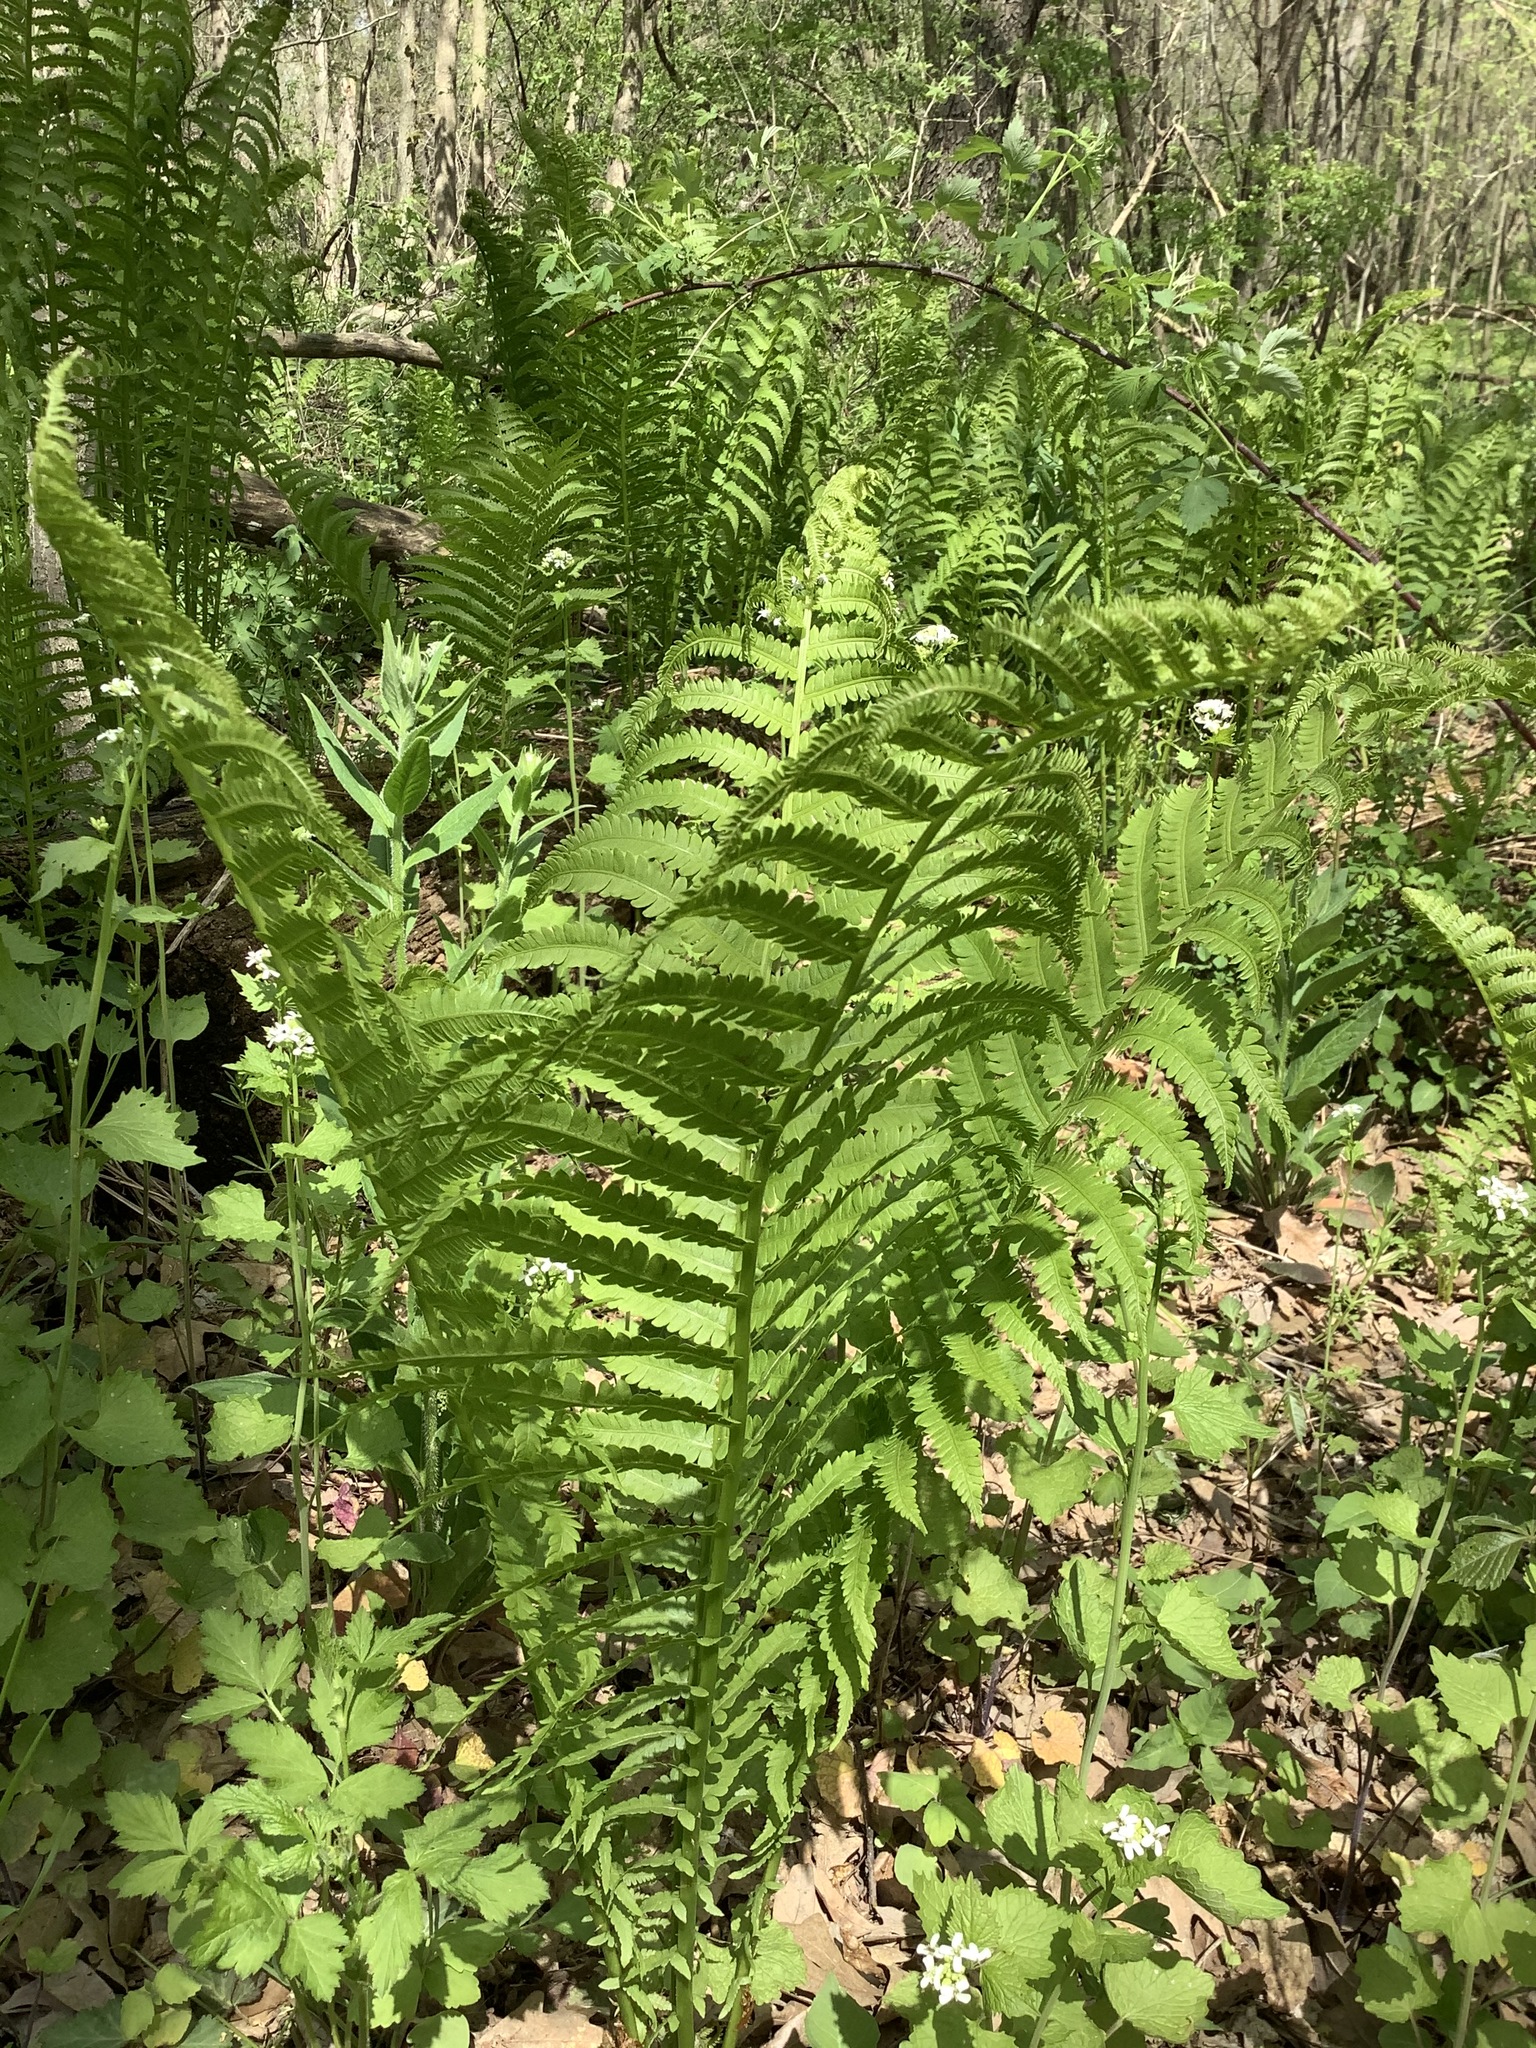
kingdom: Plantae
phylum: Tracheophyta
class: Polypodiopsida
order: Polypodiales
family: Onocleaceae
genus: Matteuccia
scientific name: Matteuccia struthiopteris
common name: Ostrich fern
